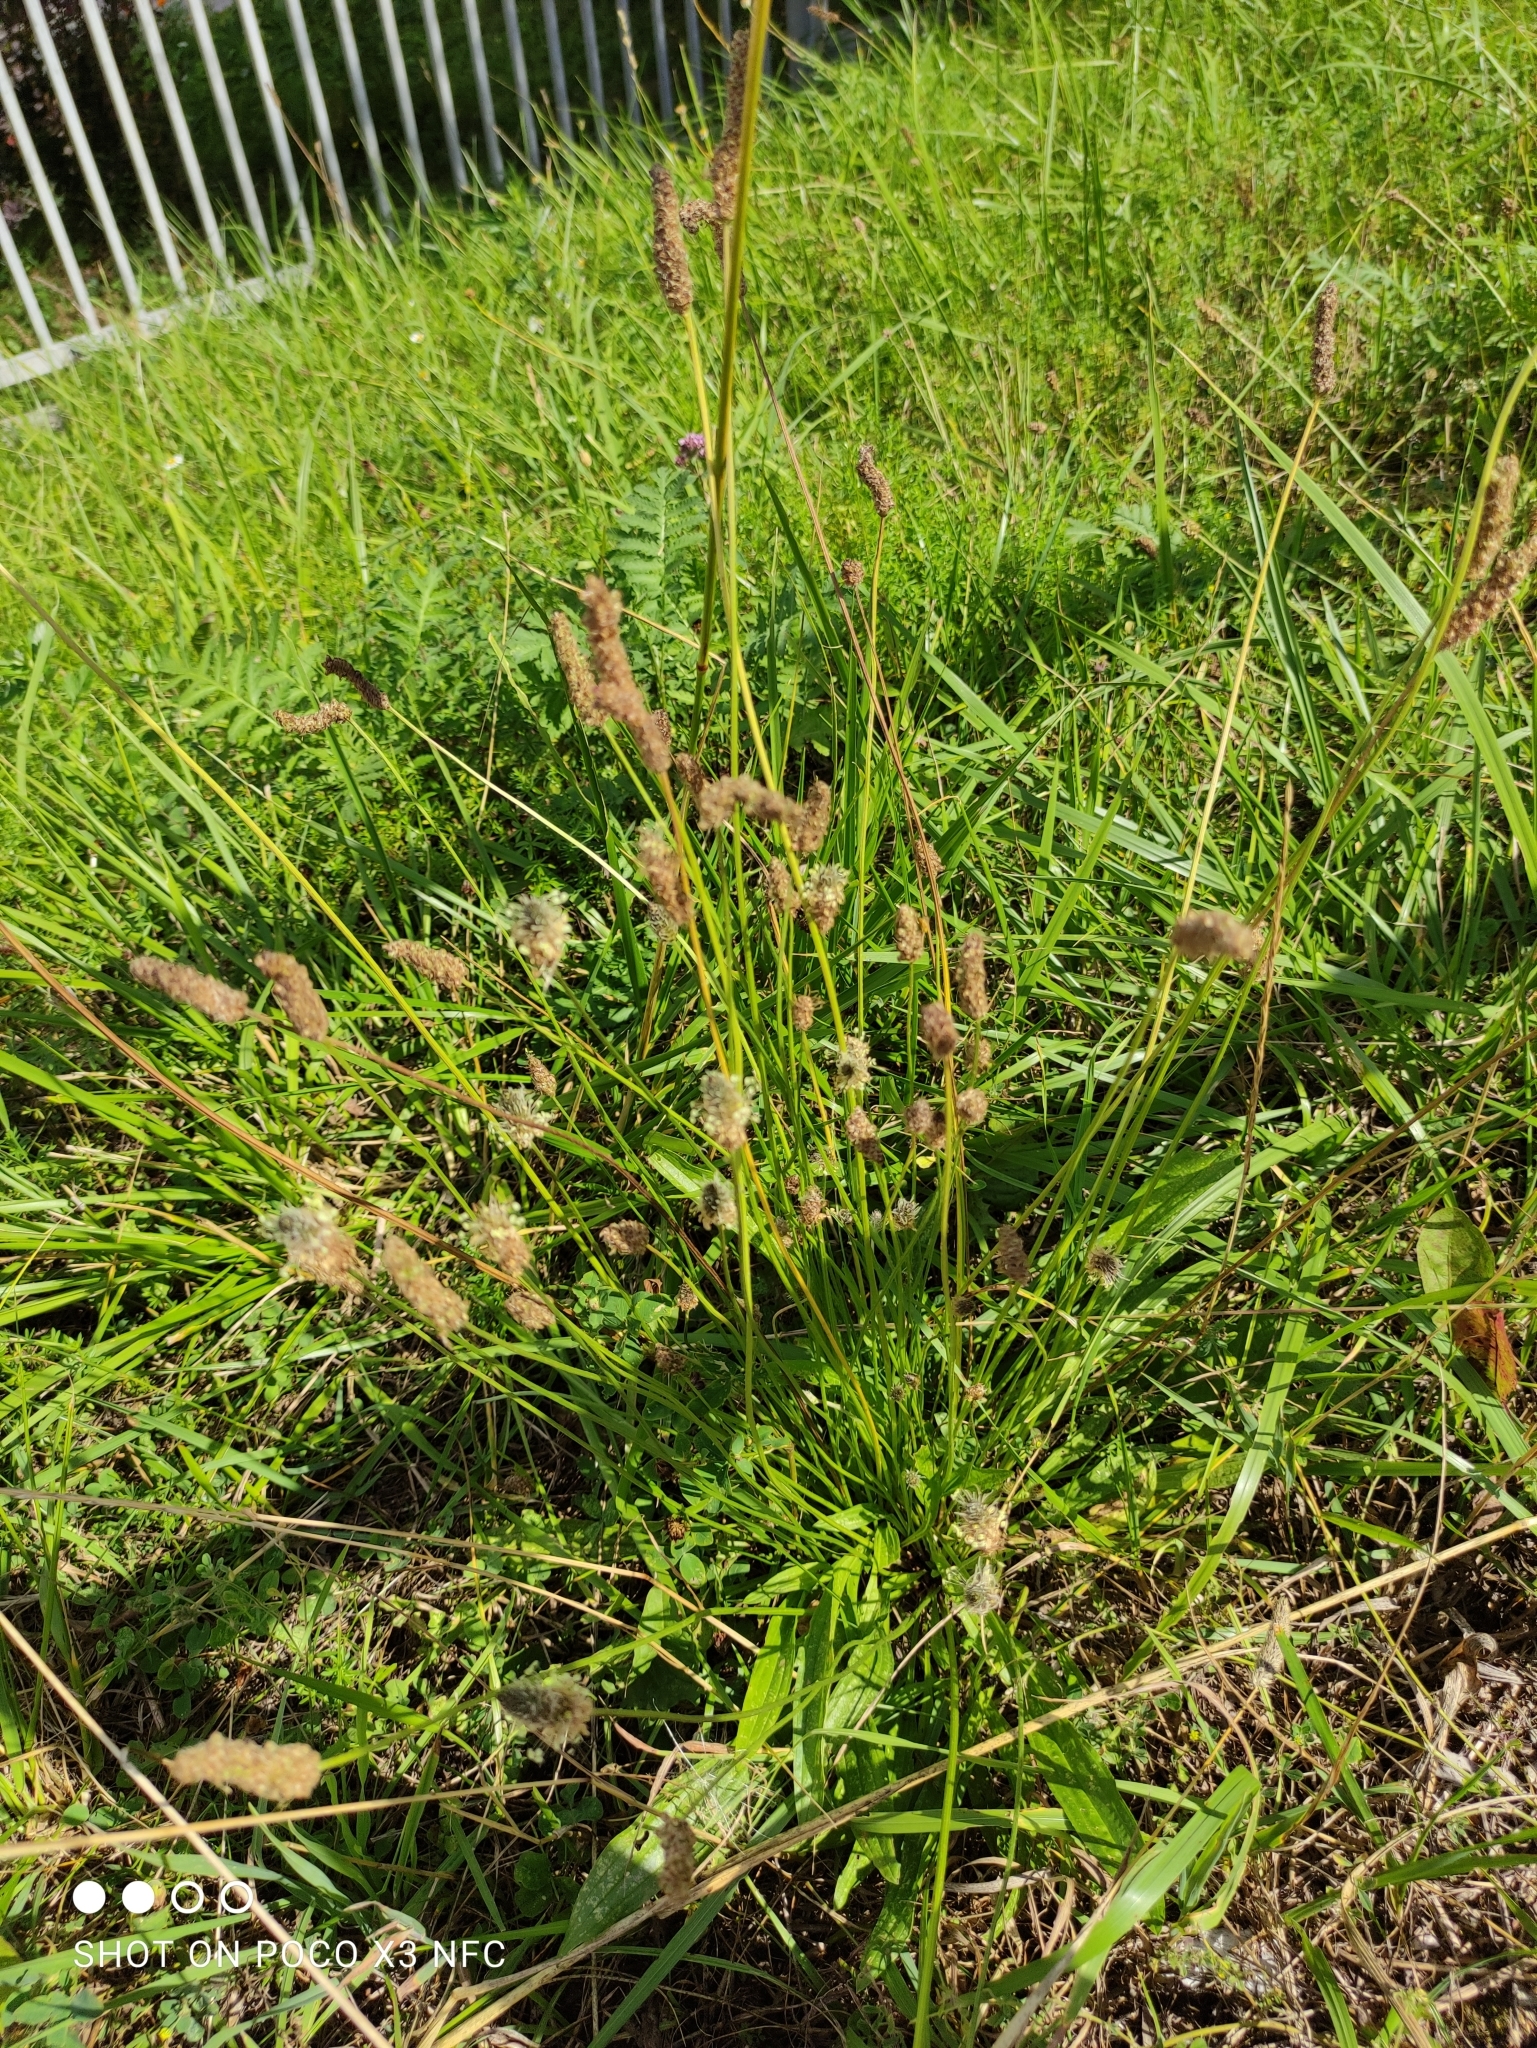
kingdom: Plantae
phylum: Tracheophyta
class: Magnoliopsida
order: Lamiales
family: Plantaginaceae
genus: Plantago
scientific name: Plantago lanceolata
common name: Ribwort plantain
